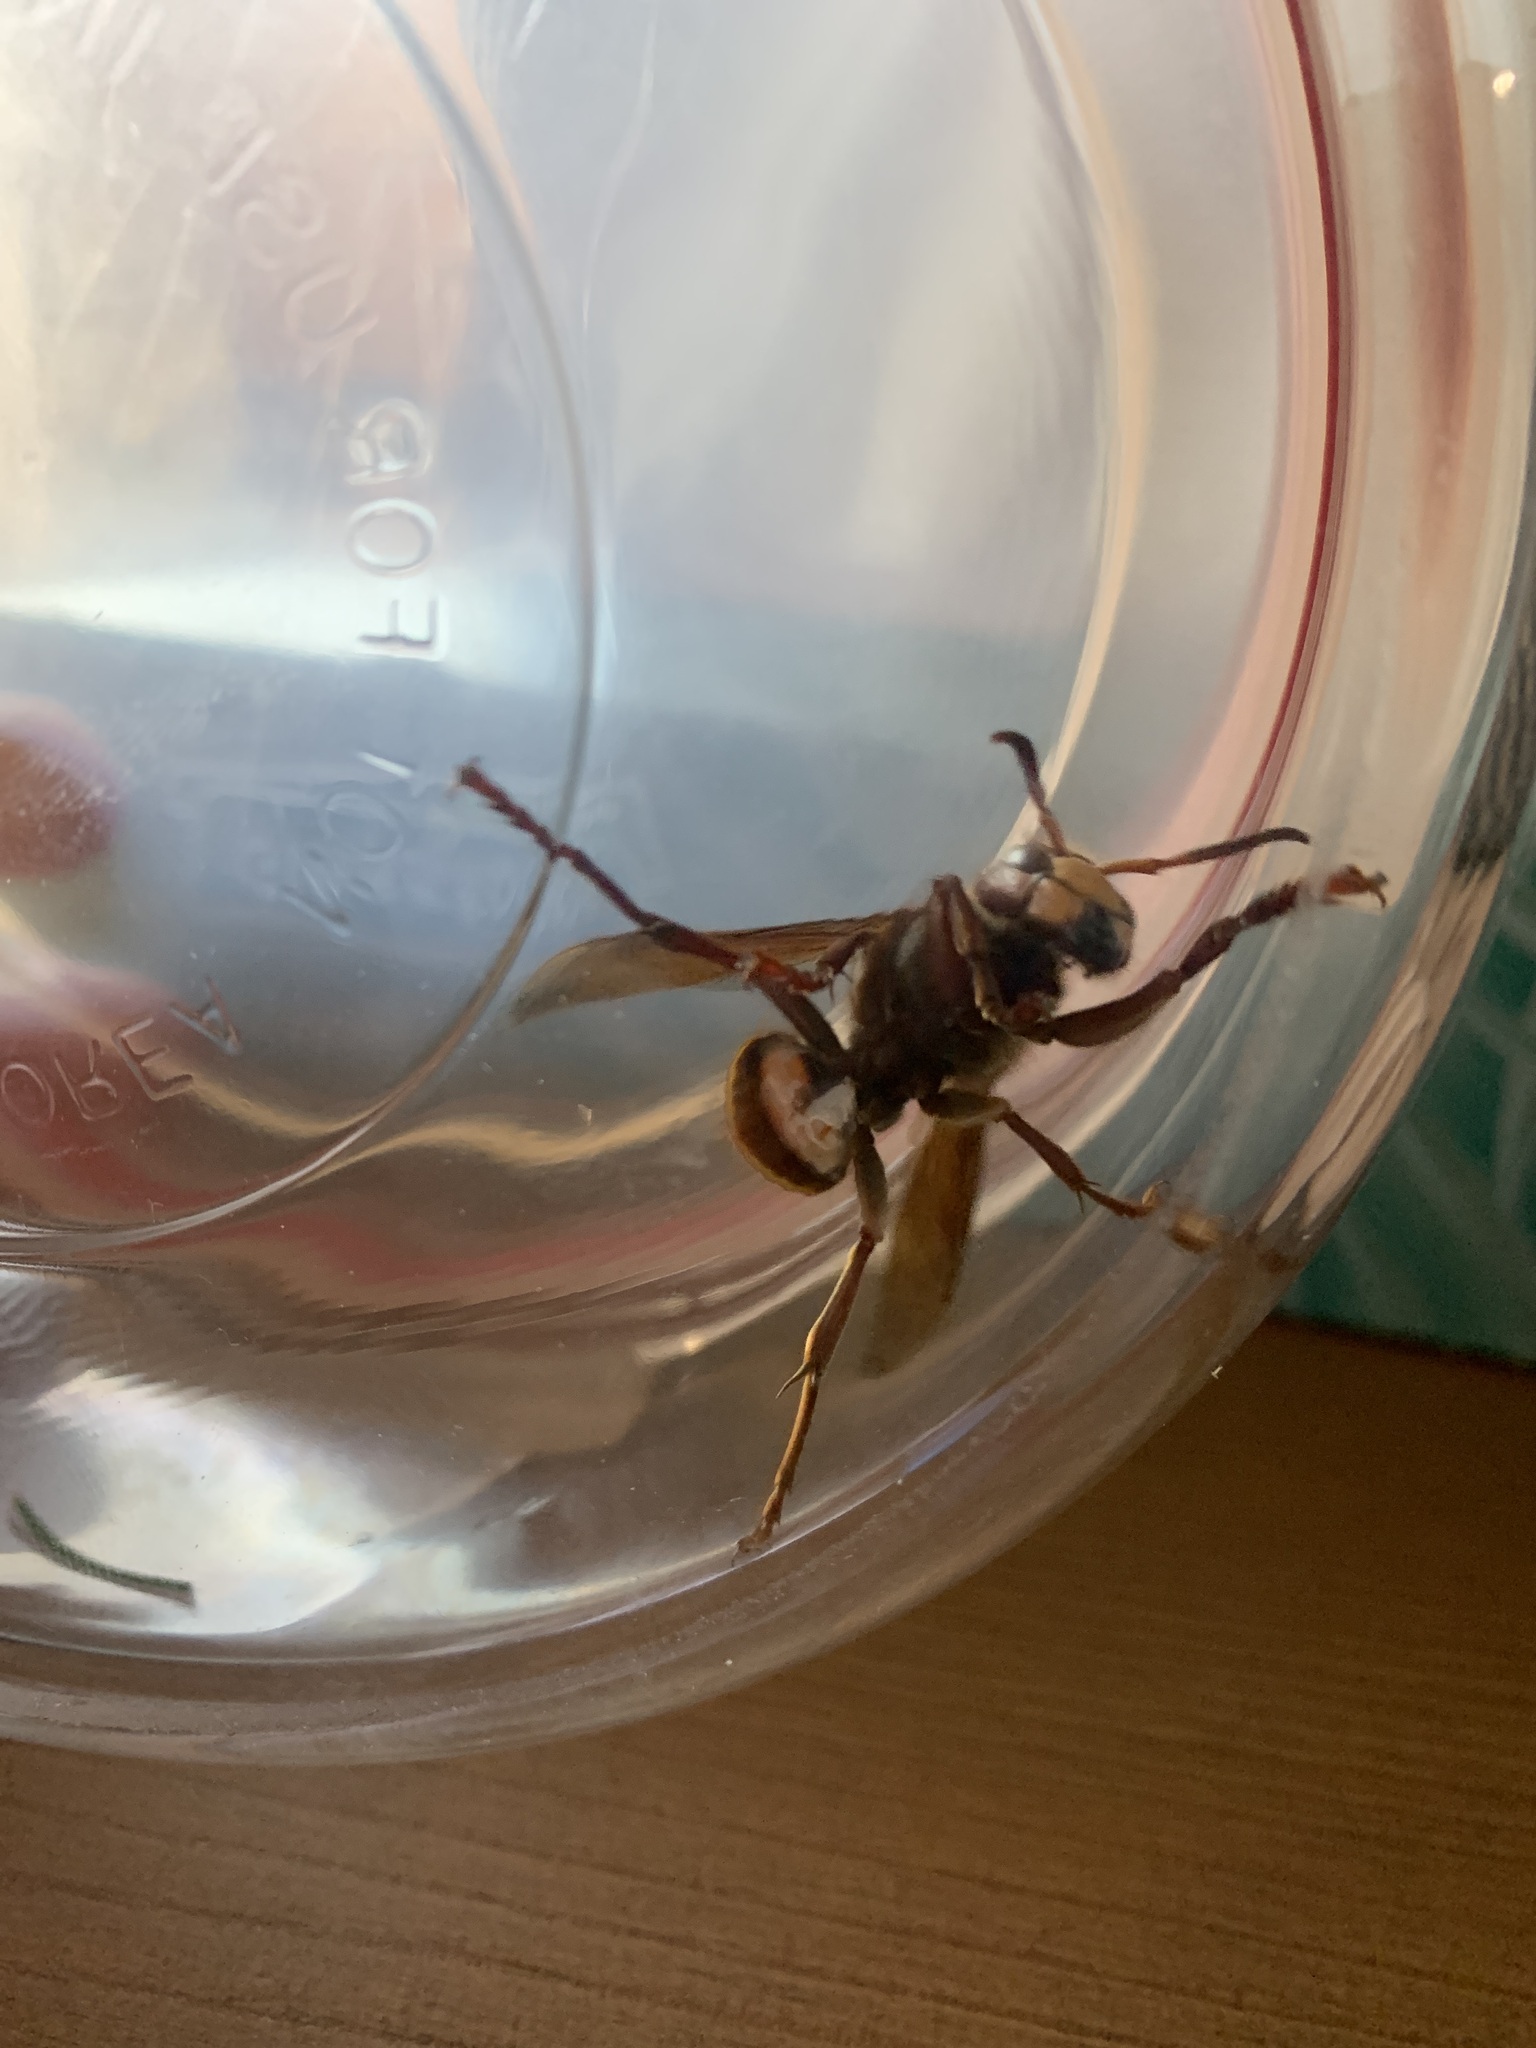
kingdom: Animalia
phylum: Arthropoda
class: Insecta
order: Hymenoptera
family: Vespidae
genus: Vespa
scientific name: Vespa crabro
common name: Hornet
